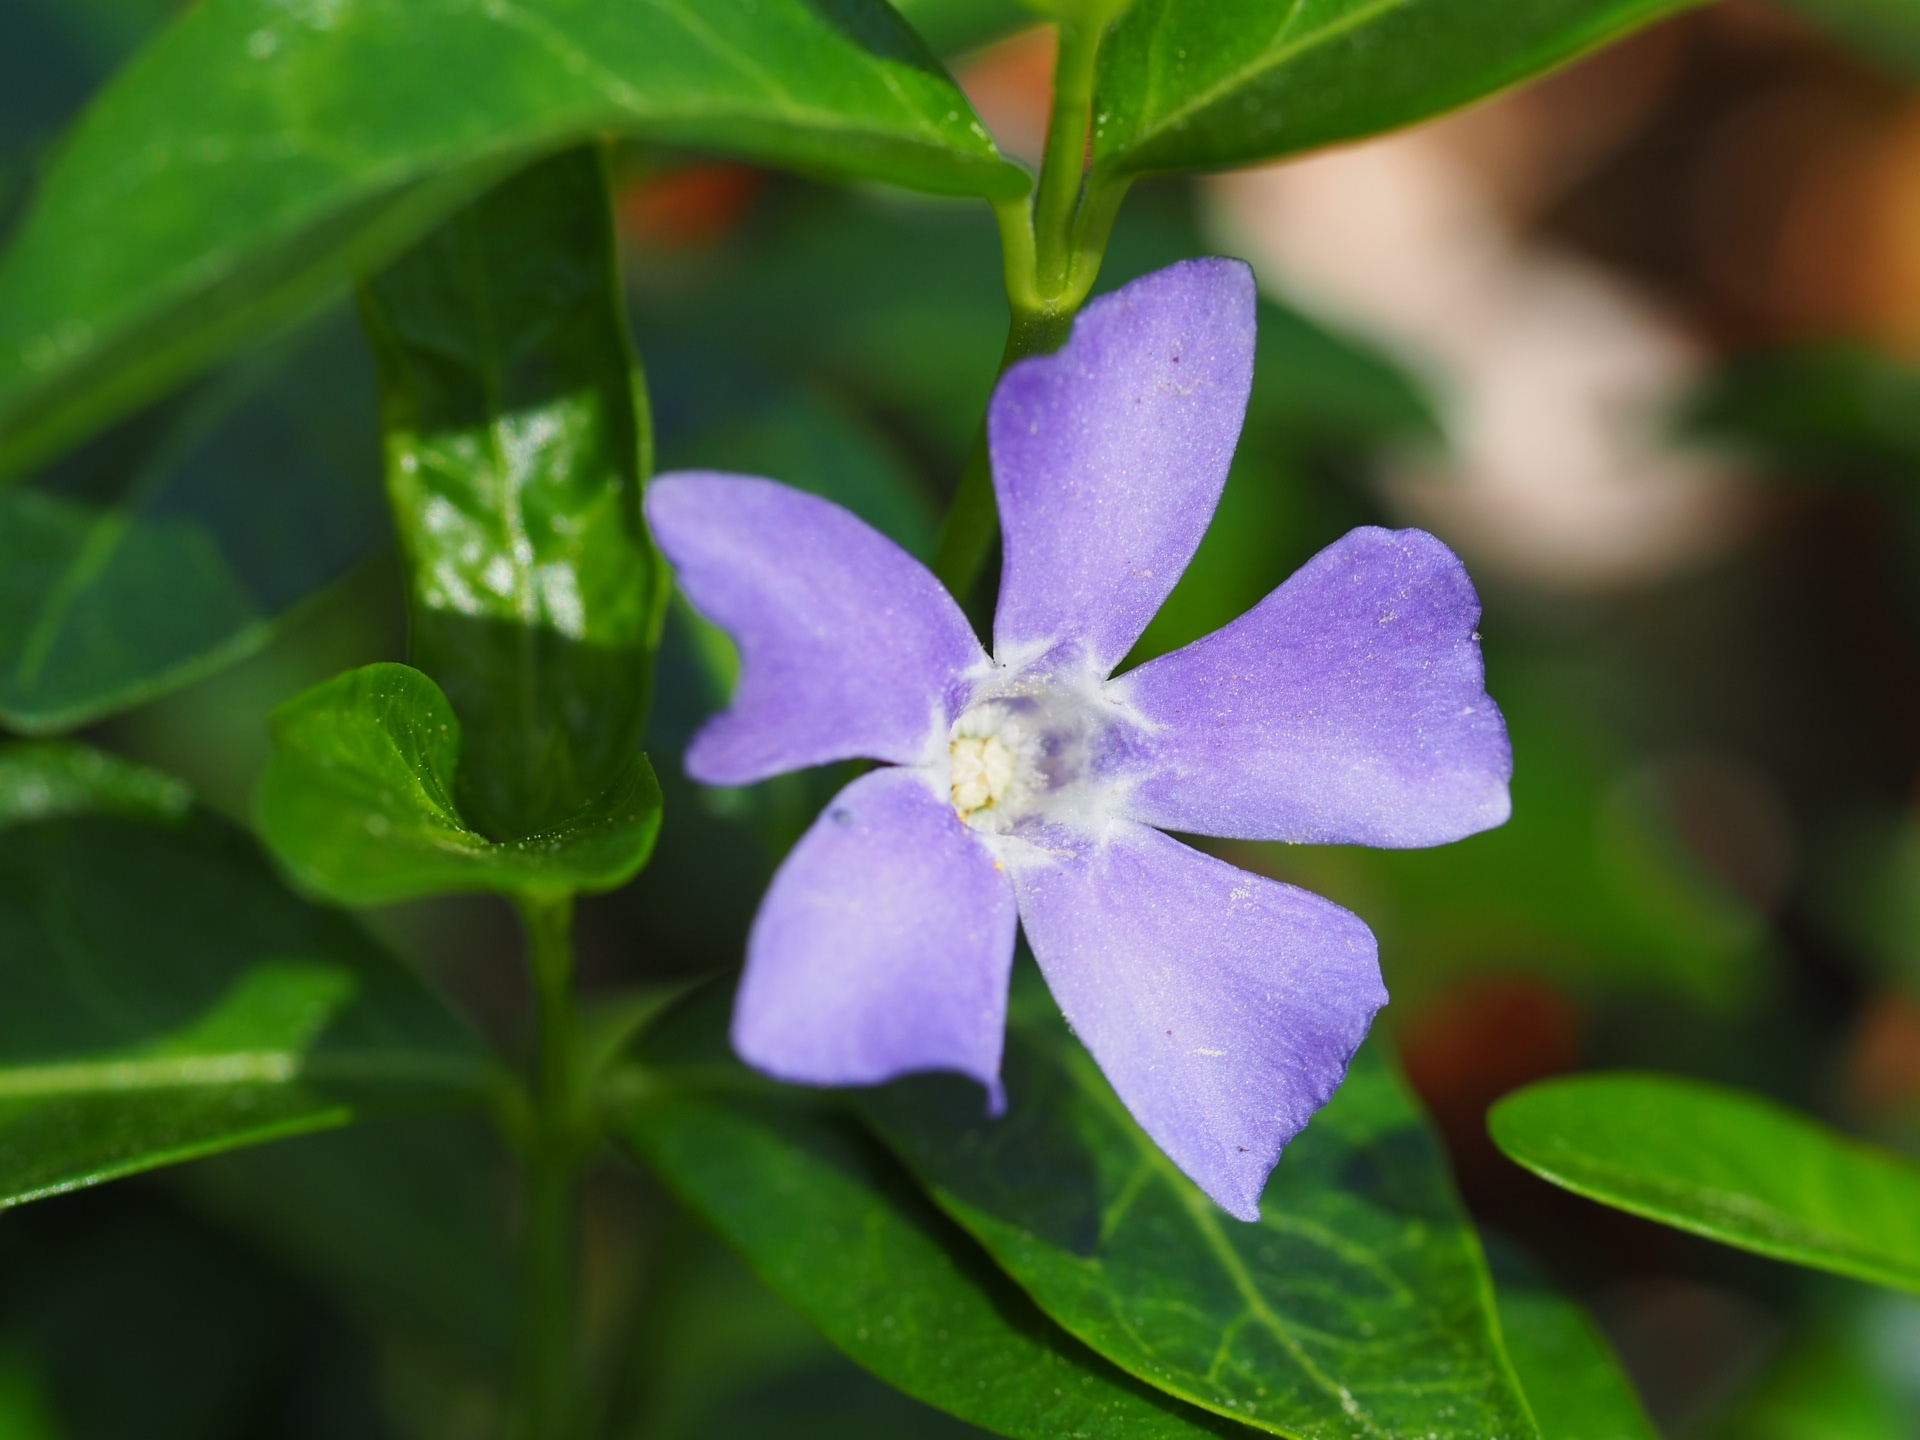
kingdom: Plantae
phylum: Tracheophyta
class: Magnoliopsida
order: Gentianales
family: Apocynaceae
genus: Vinca
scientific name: Vinca minor
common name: Lesser periwinkle
